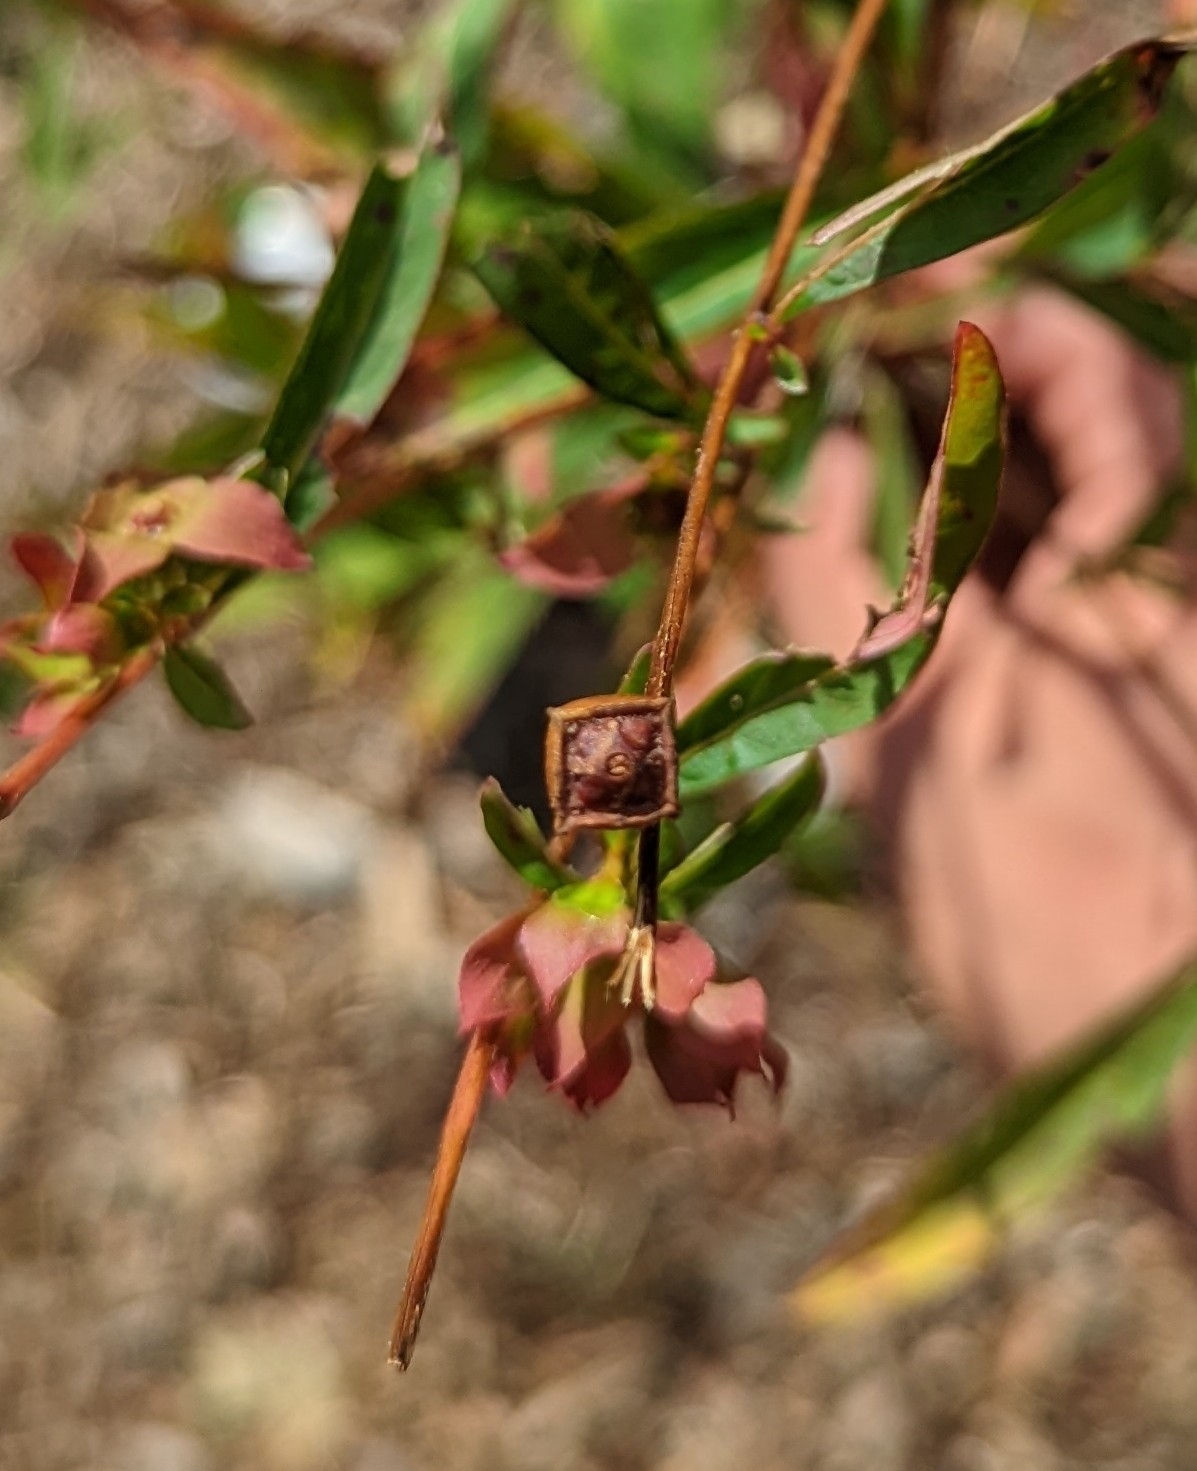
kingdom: Plantae
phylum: Tracheophyta
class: Magnoliopsida
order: Myrtales
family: Onagraceae
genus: Ludwigia
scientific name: Ludwigia alternifolia
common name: Rattlebox
